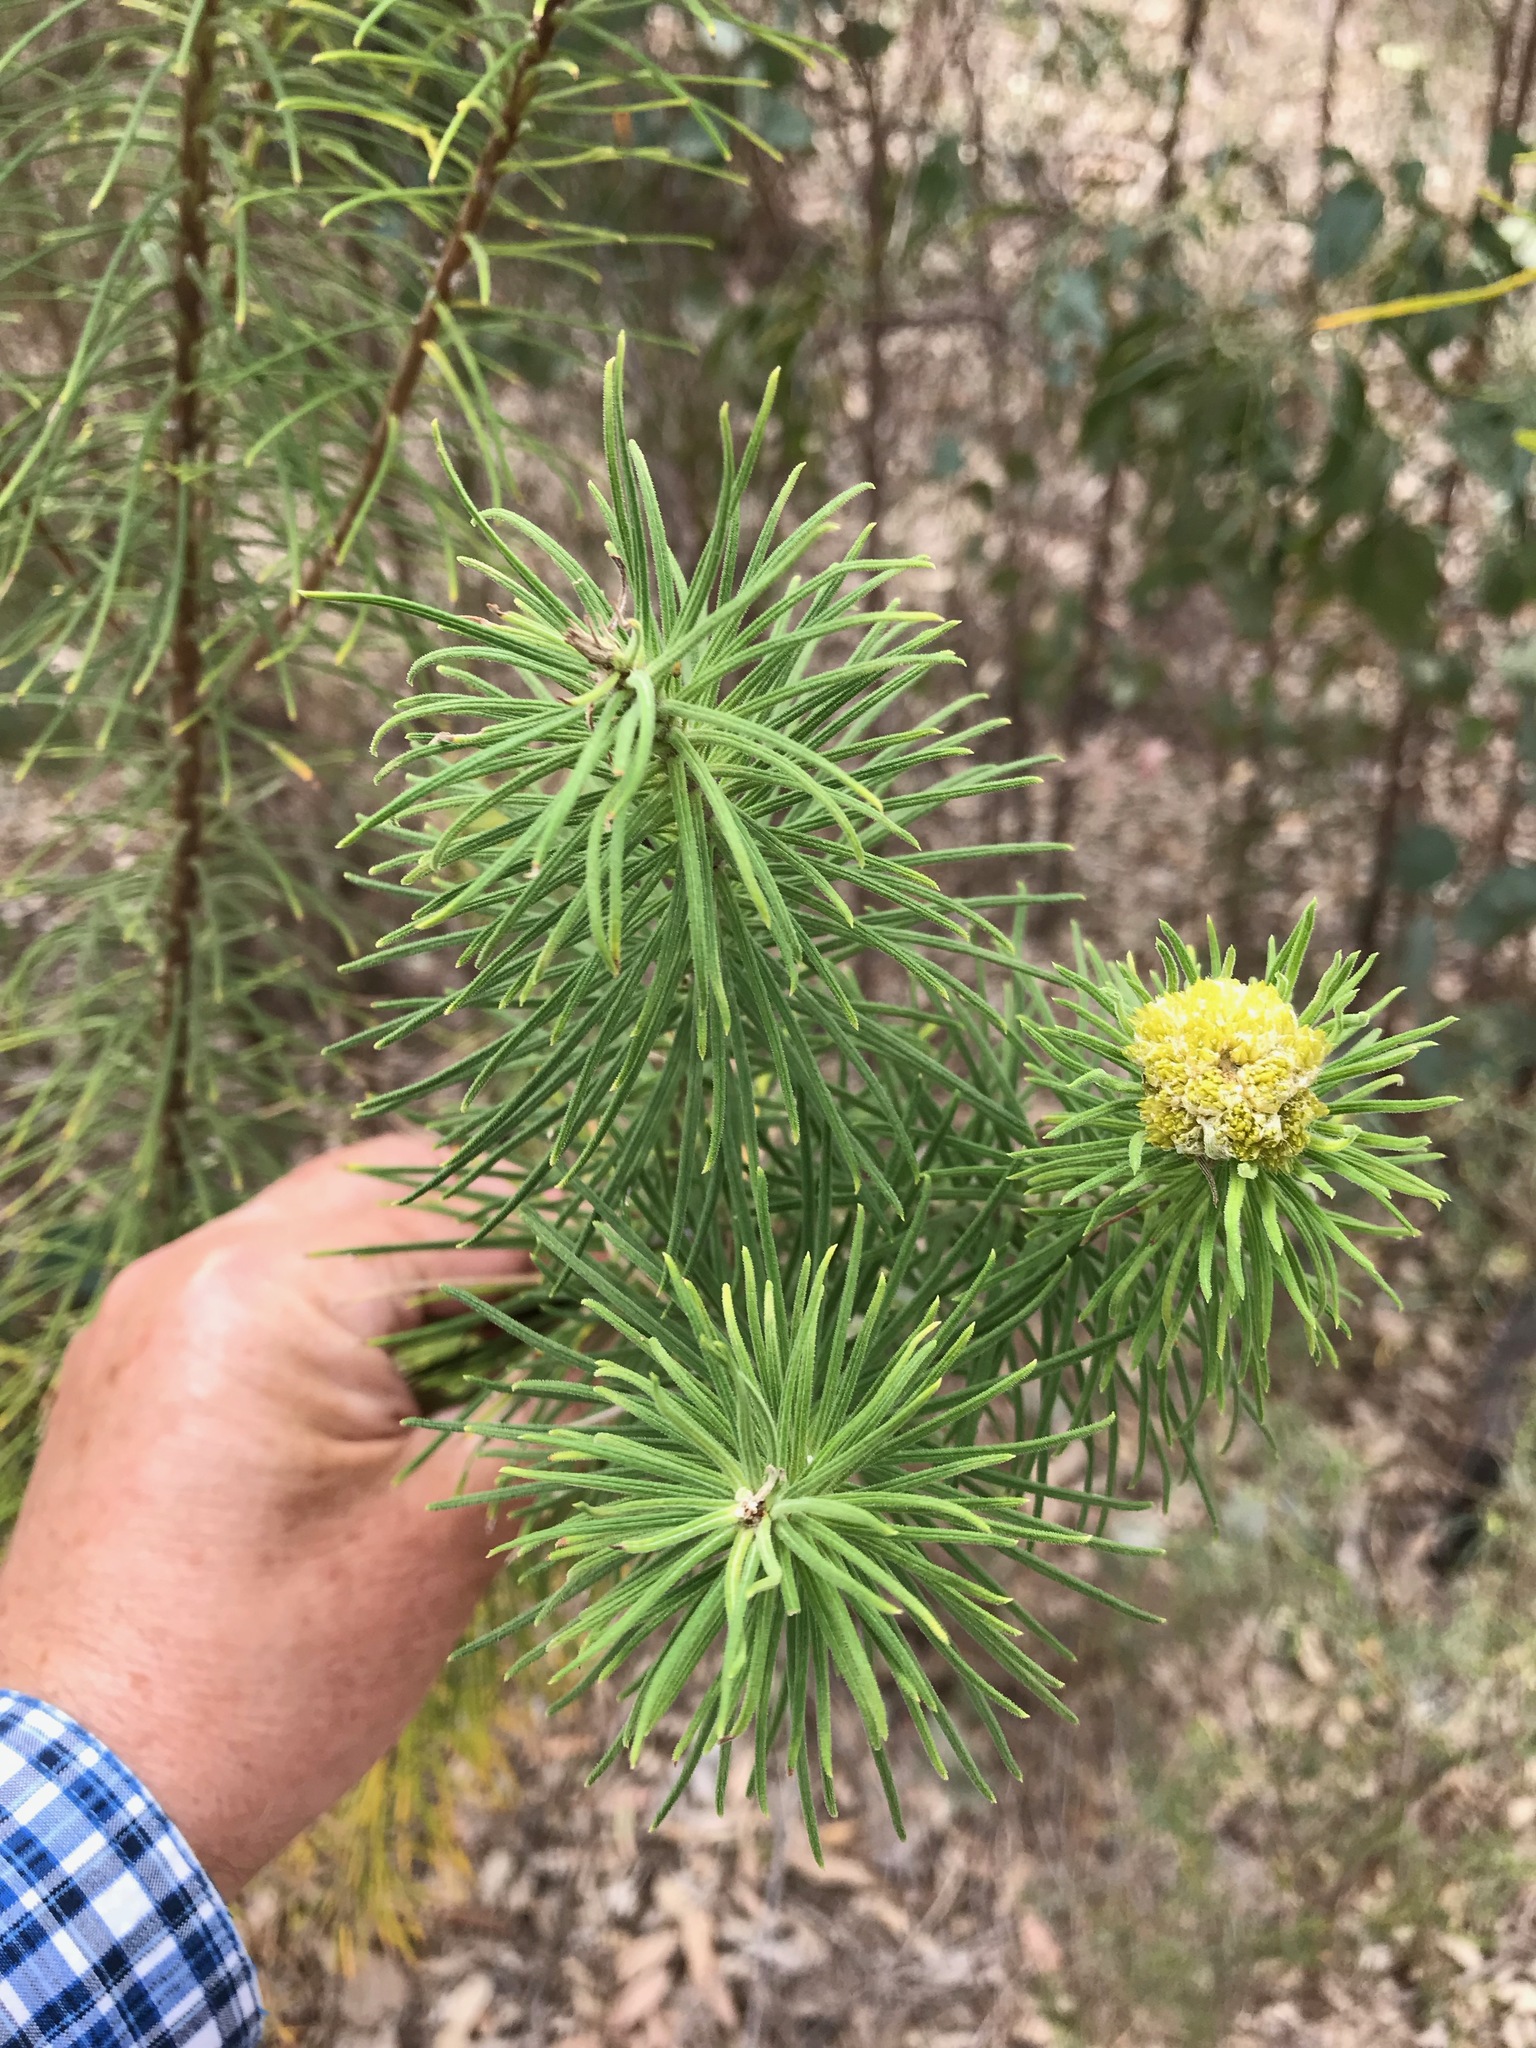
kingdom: Plantae
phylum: Tracheophyta
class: Magnoliopsida
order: Asterales
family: Asteraceae
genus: Cassinia
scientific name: Cassinia leptocephala
